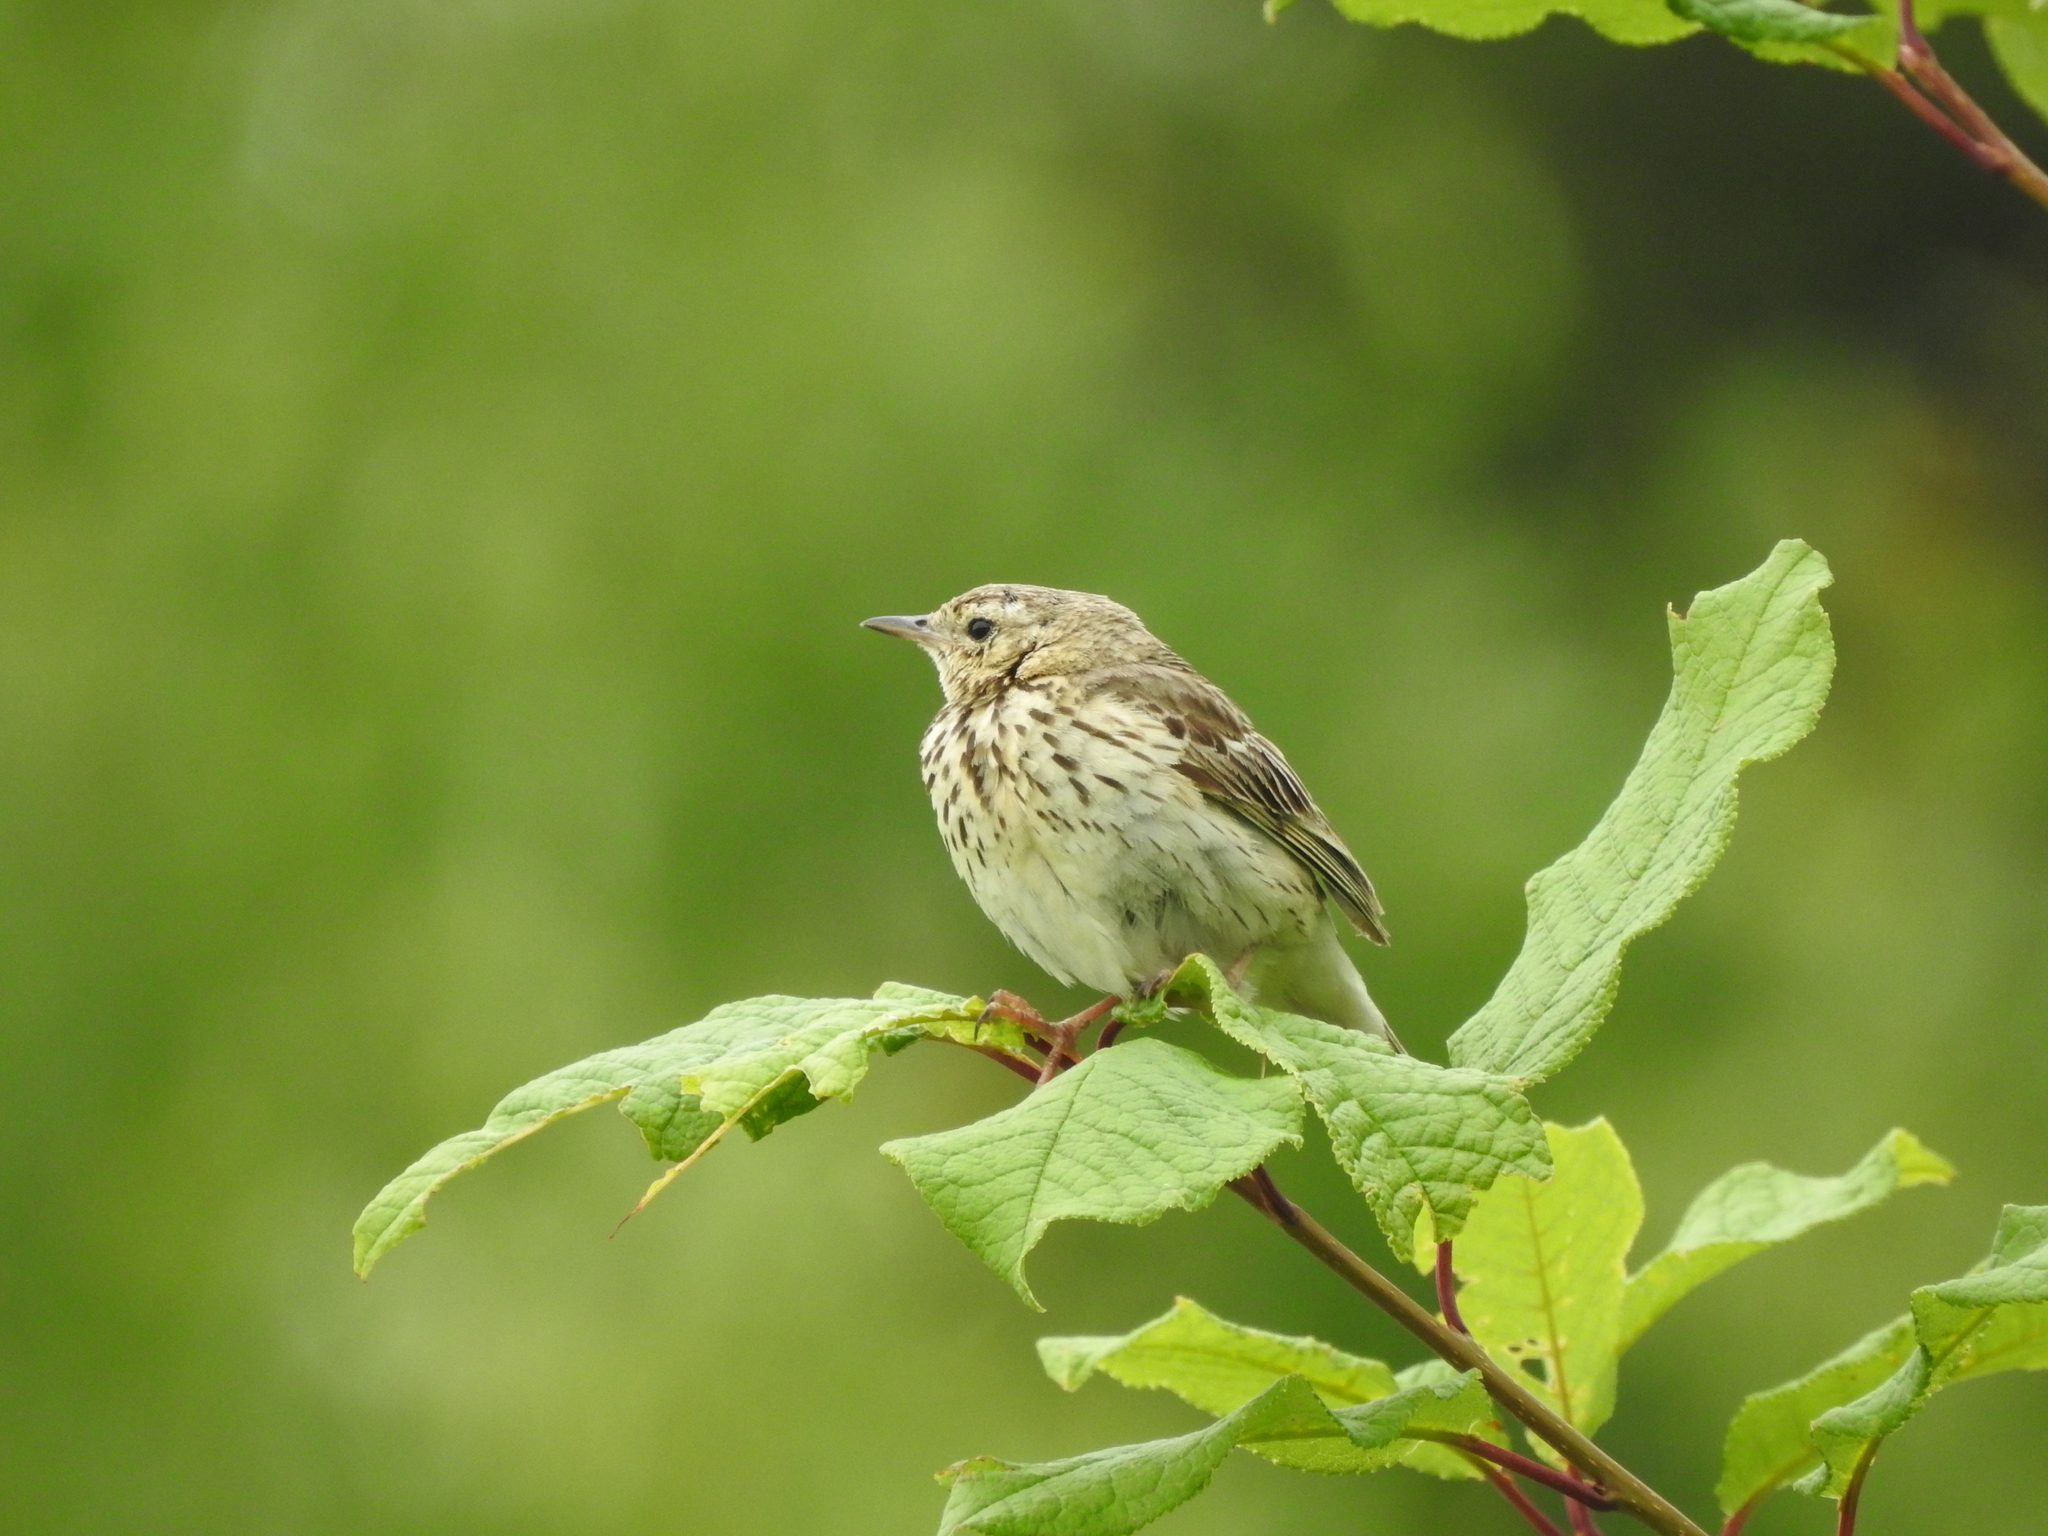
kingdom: Animalia
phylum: Chordata
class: Aves
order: Passeriformes
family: Motacillidae
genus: Anthus
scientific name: Anthus trivialis
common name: Tree pipit
